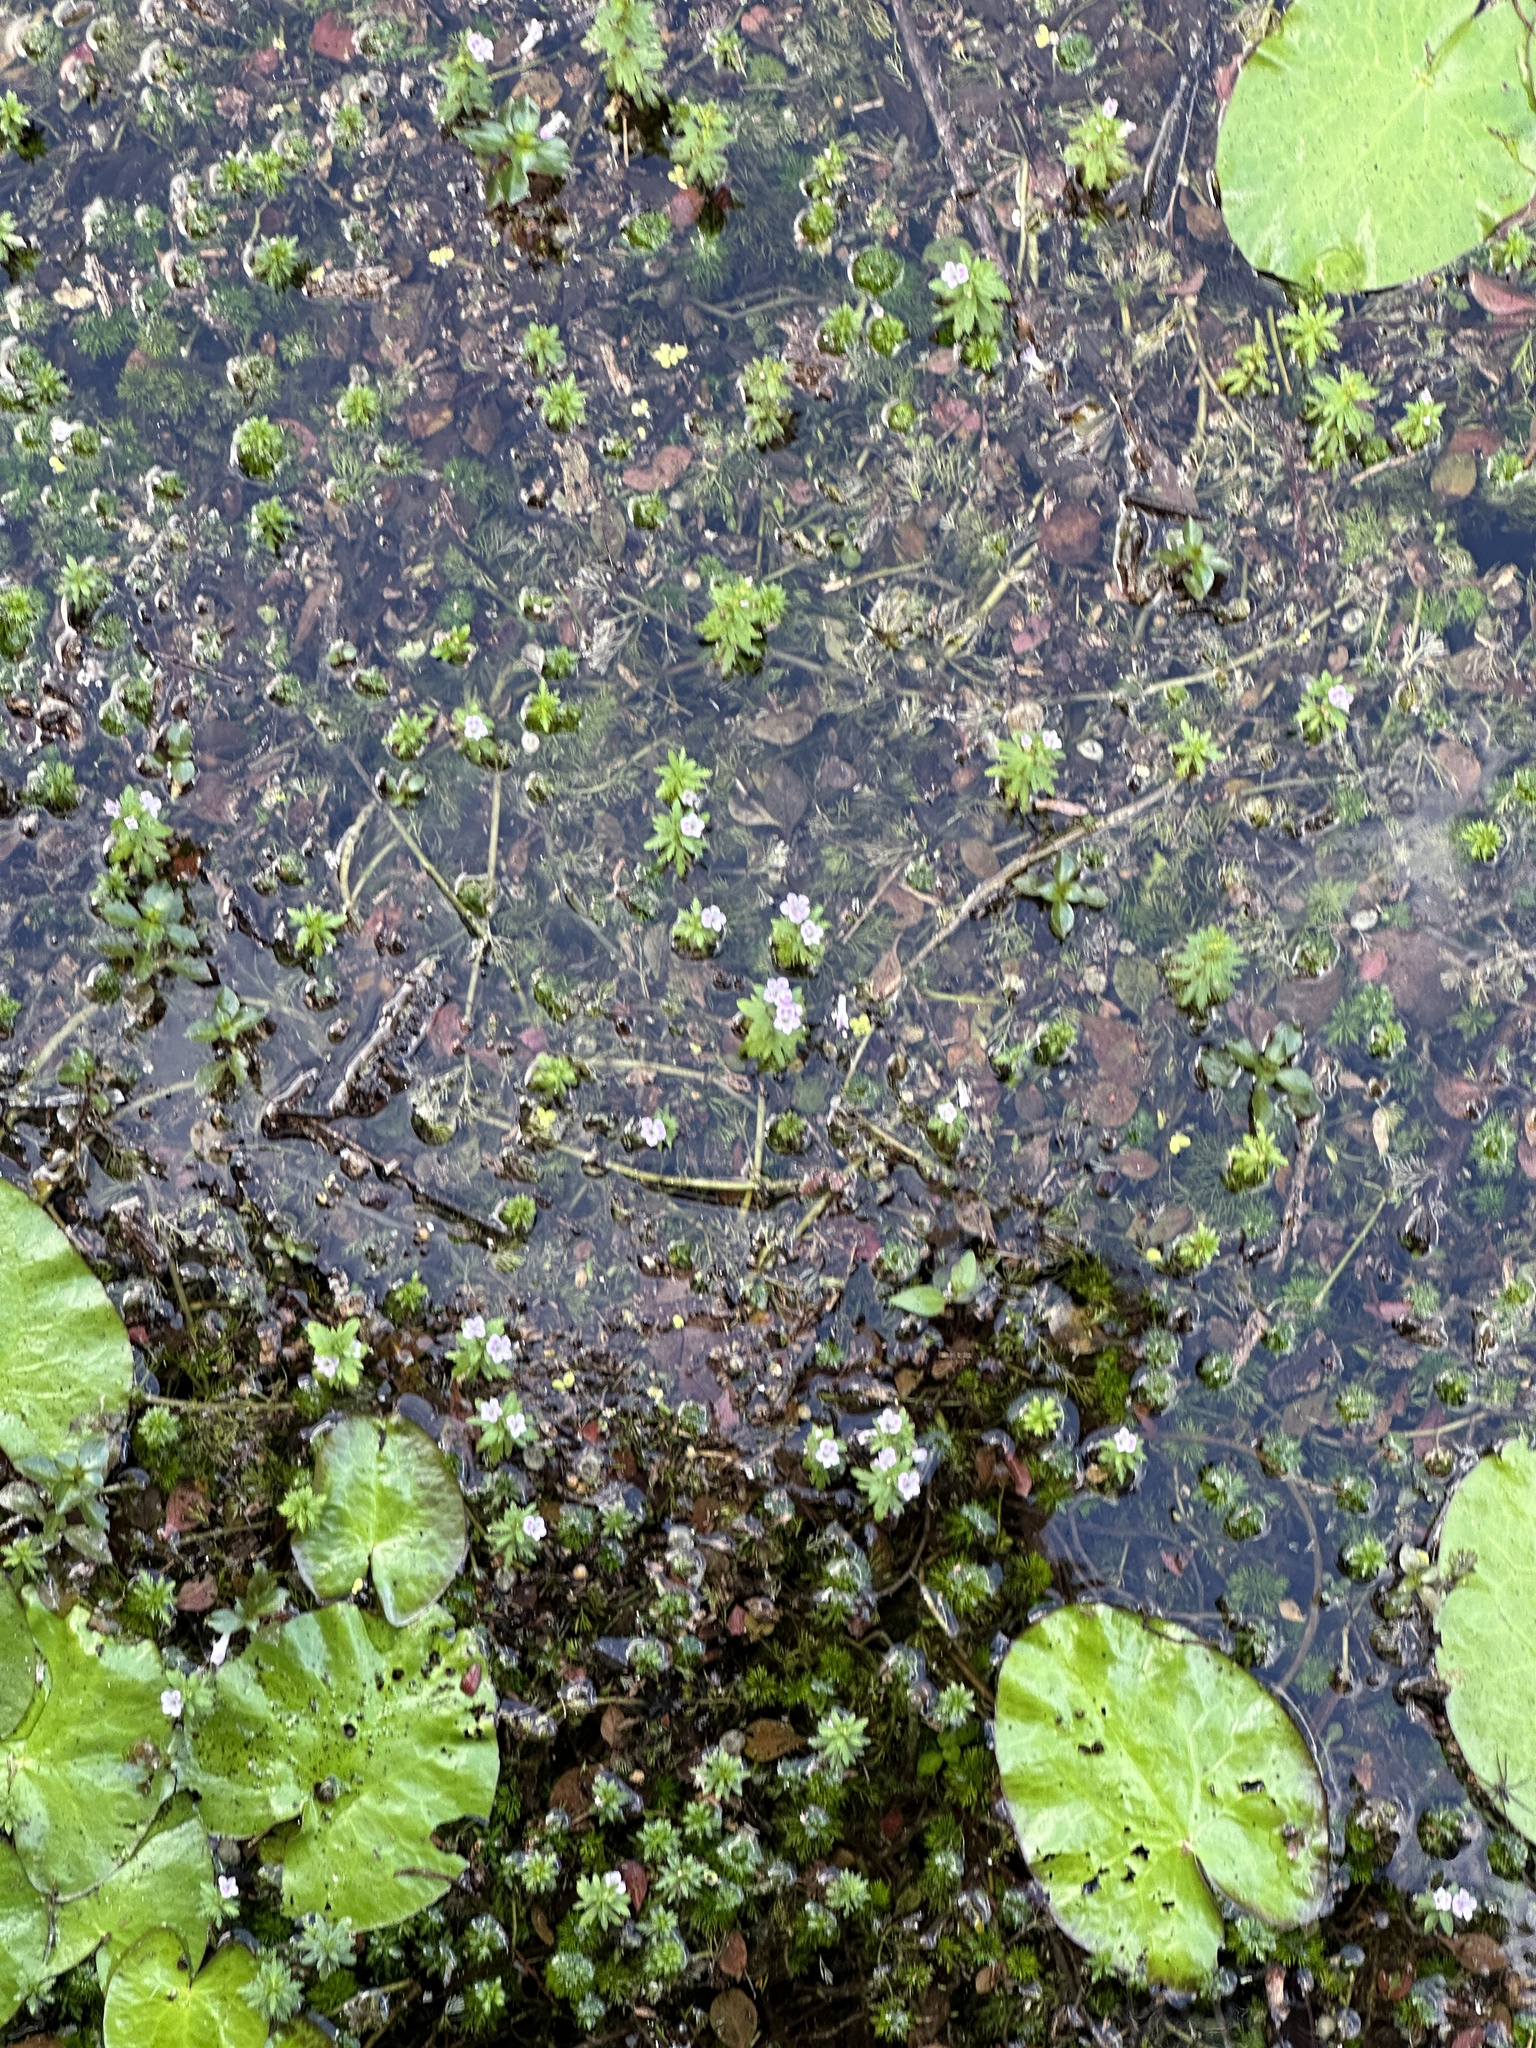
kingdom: Plantae
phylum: Tracheophyta
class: Magnoliopsida
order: Lamiales
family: Plantaginaceae
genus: Limnophila
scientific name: Limnophila sessiliflora
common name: Asian marshweed
